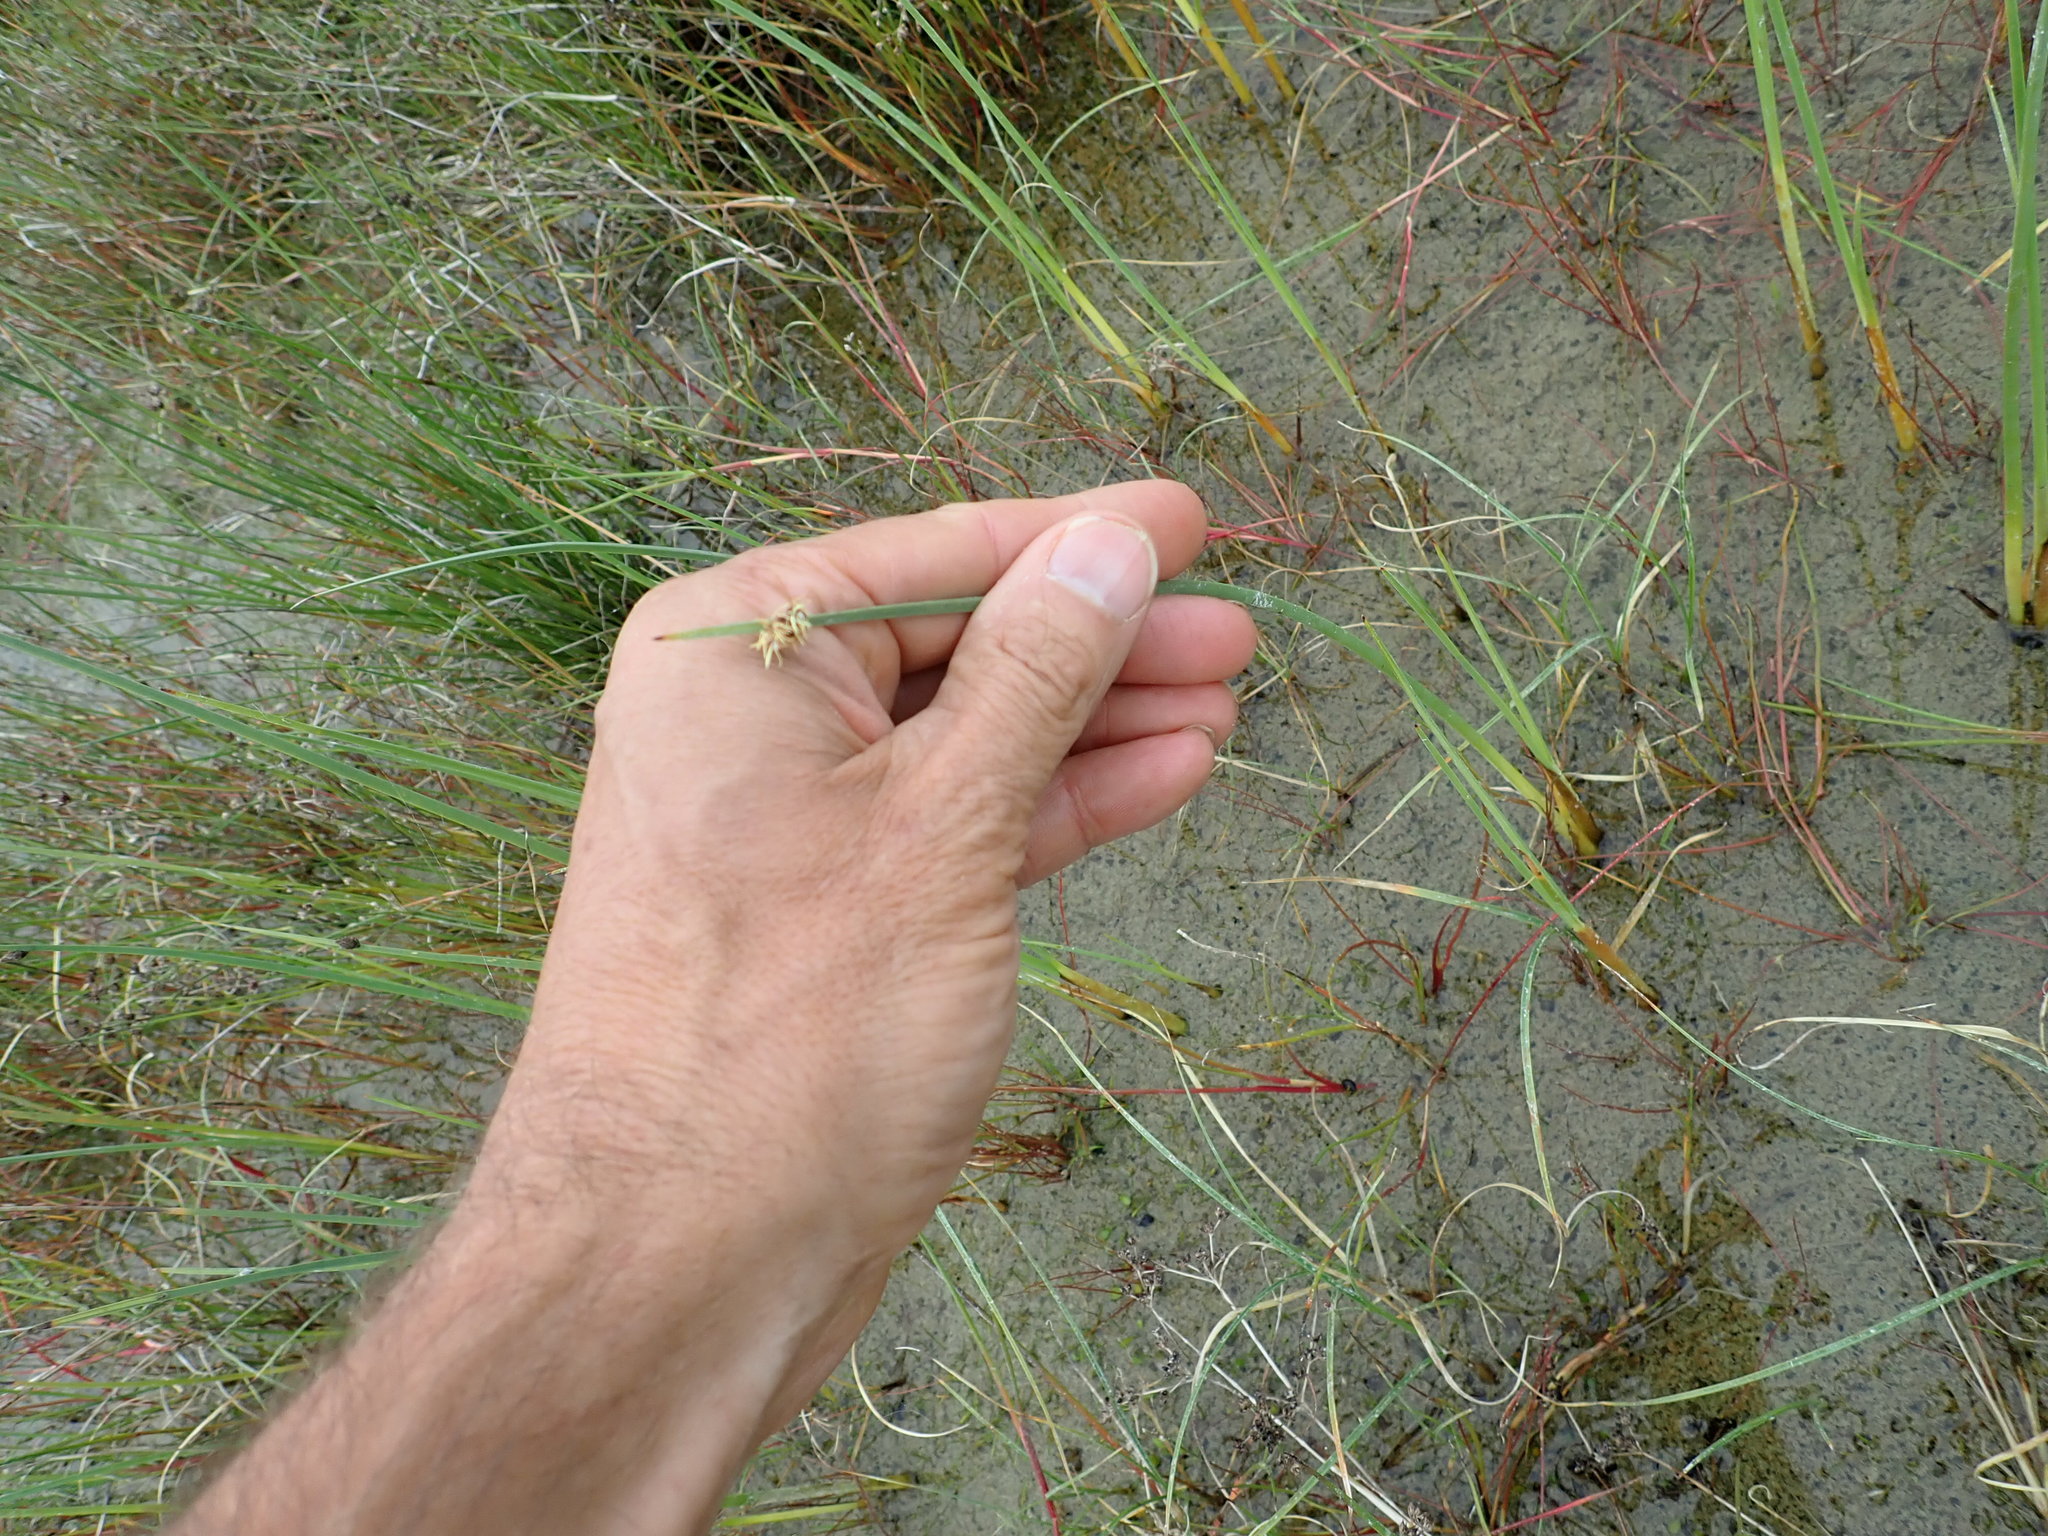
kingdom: Plantae
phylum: Tracheophyta
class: Liliopsida
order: Poales
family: Cyperaceae
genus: Schoenoplectus
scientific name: Schoenoplectus pungens
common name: Sharp club-rush
